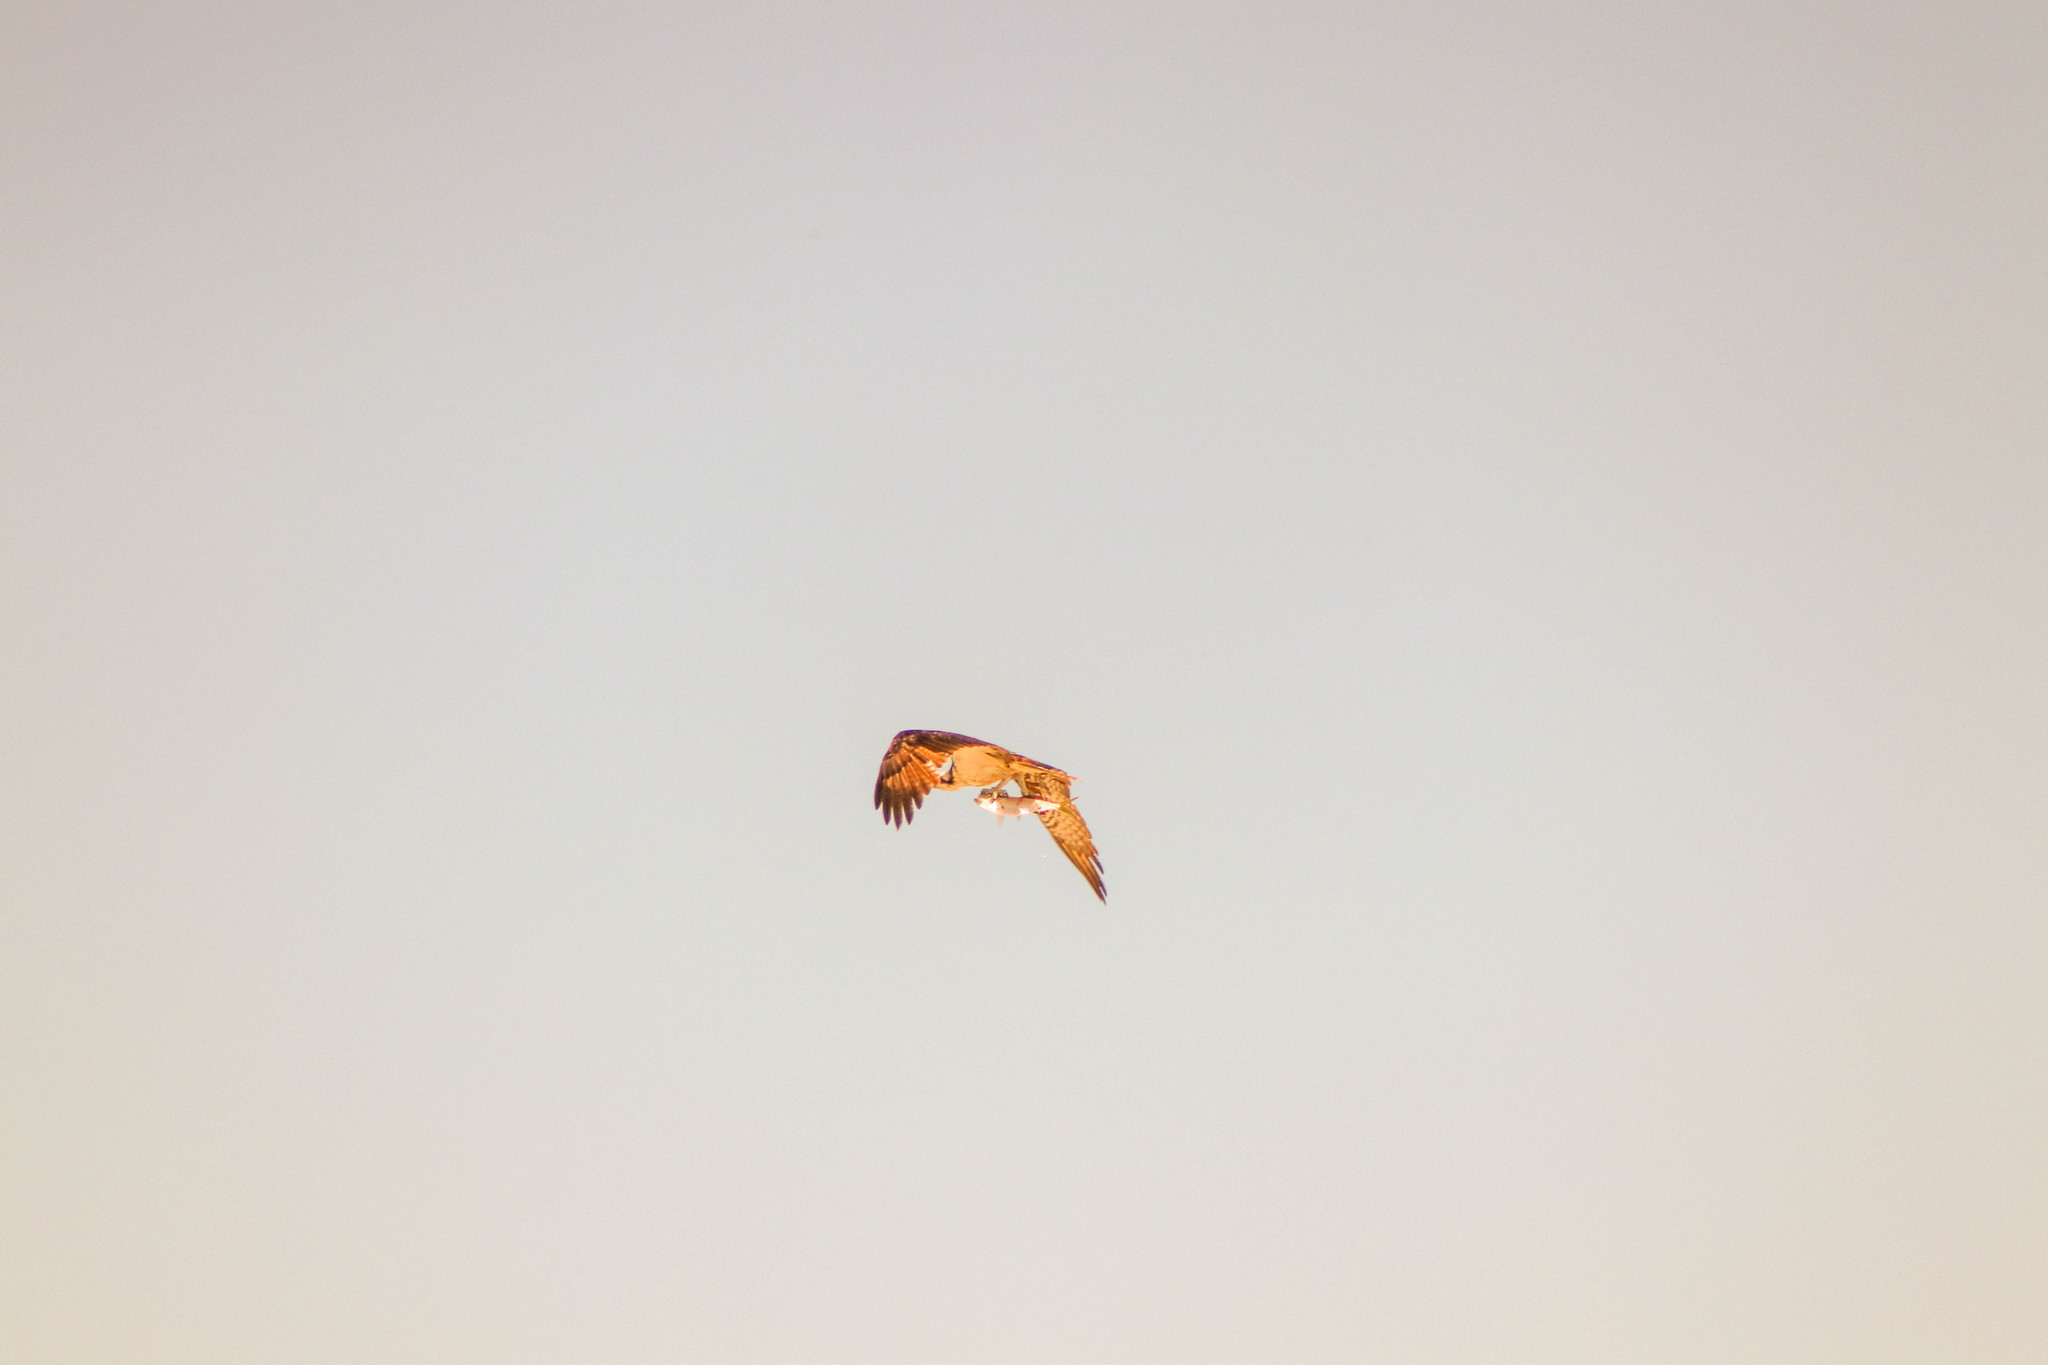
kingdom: Animalia
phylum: Chordata
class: Aves
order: Accipitriformes
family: Pandionidae
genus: Pandion
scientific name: Pandion haliaetus
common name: Osprey
